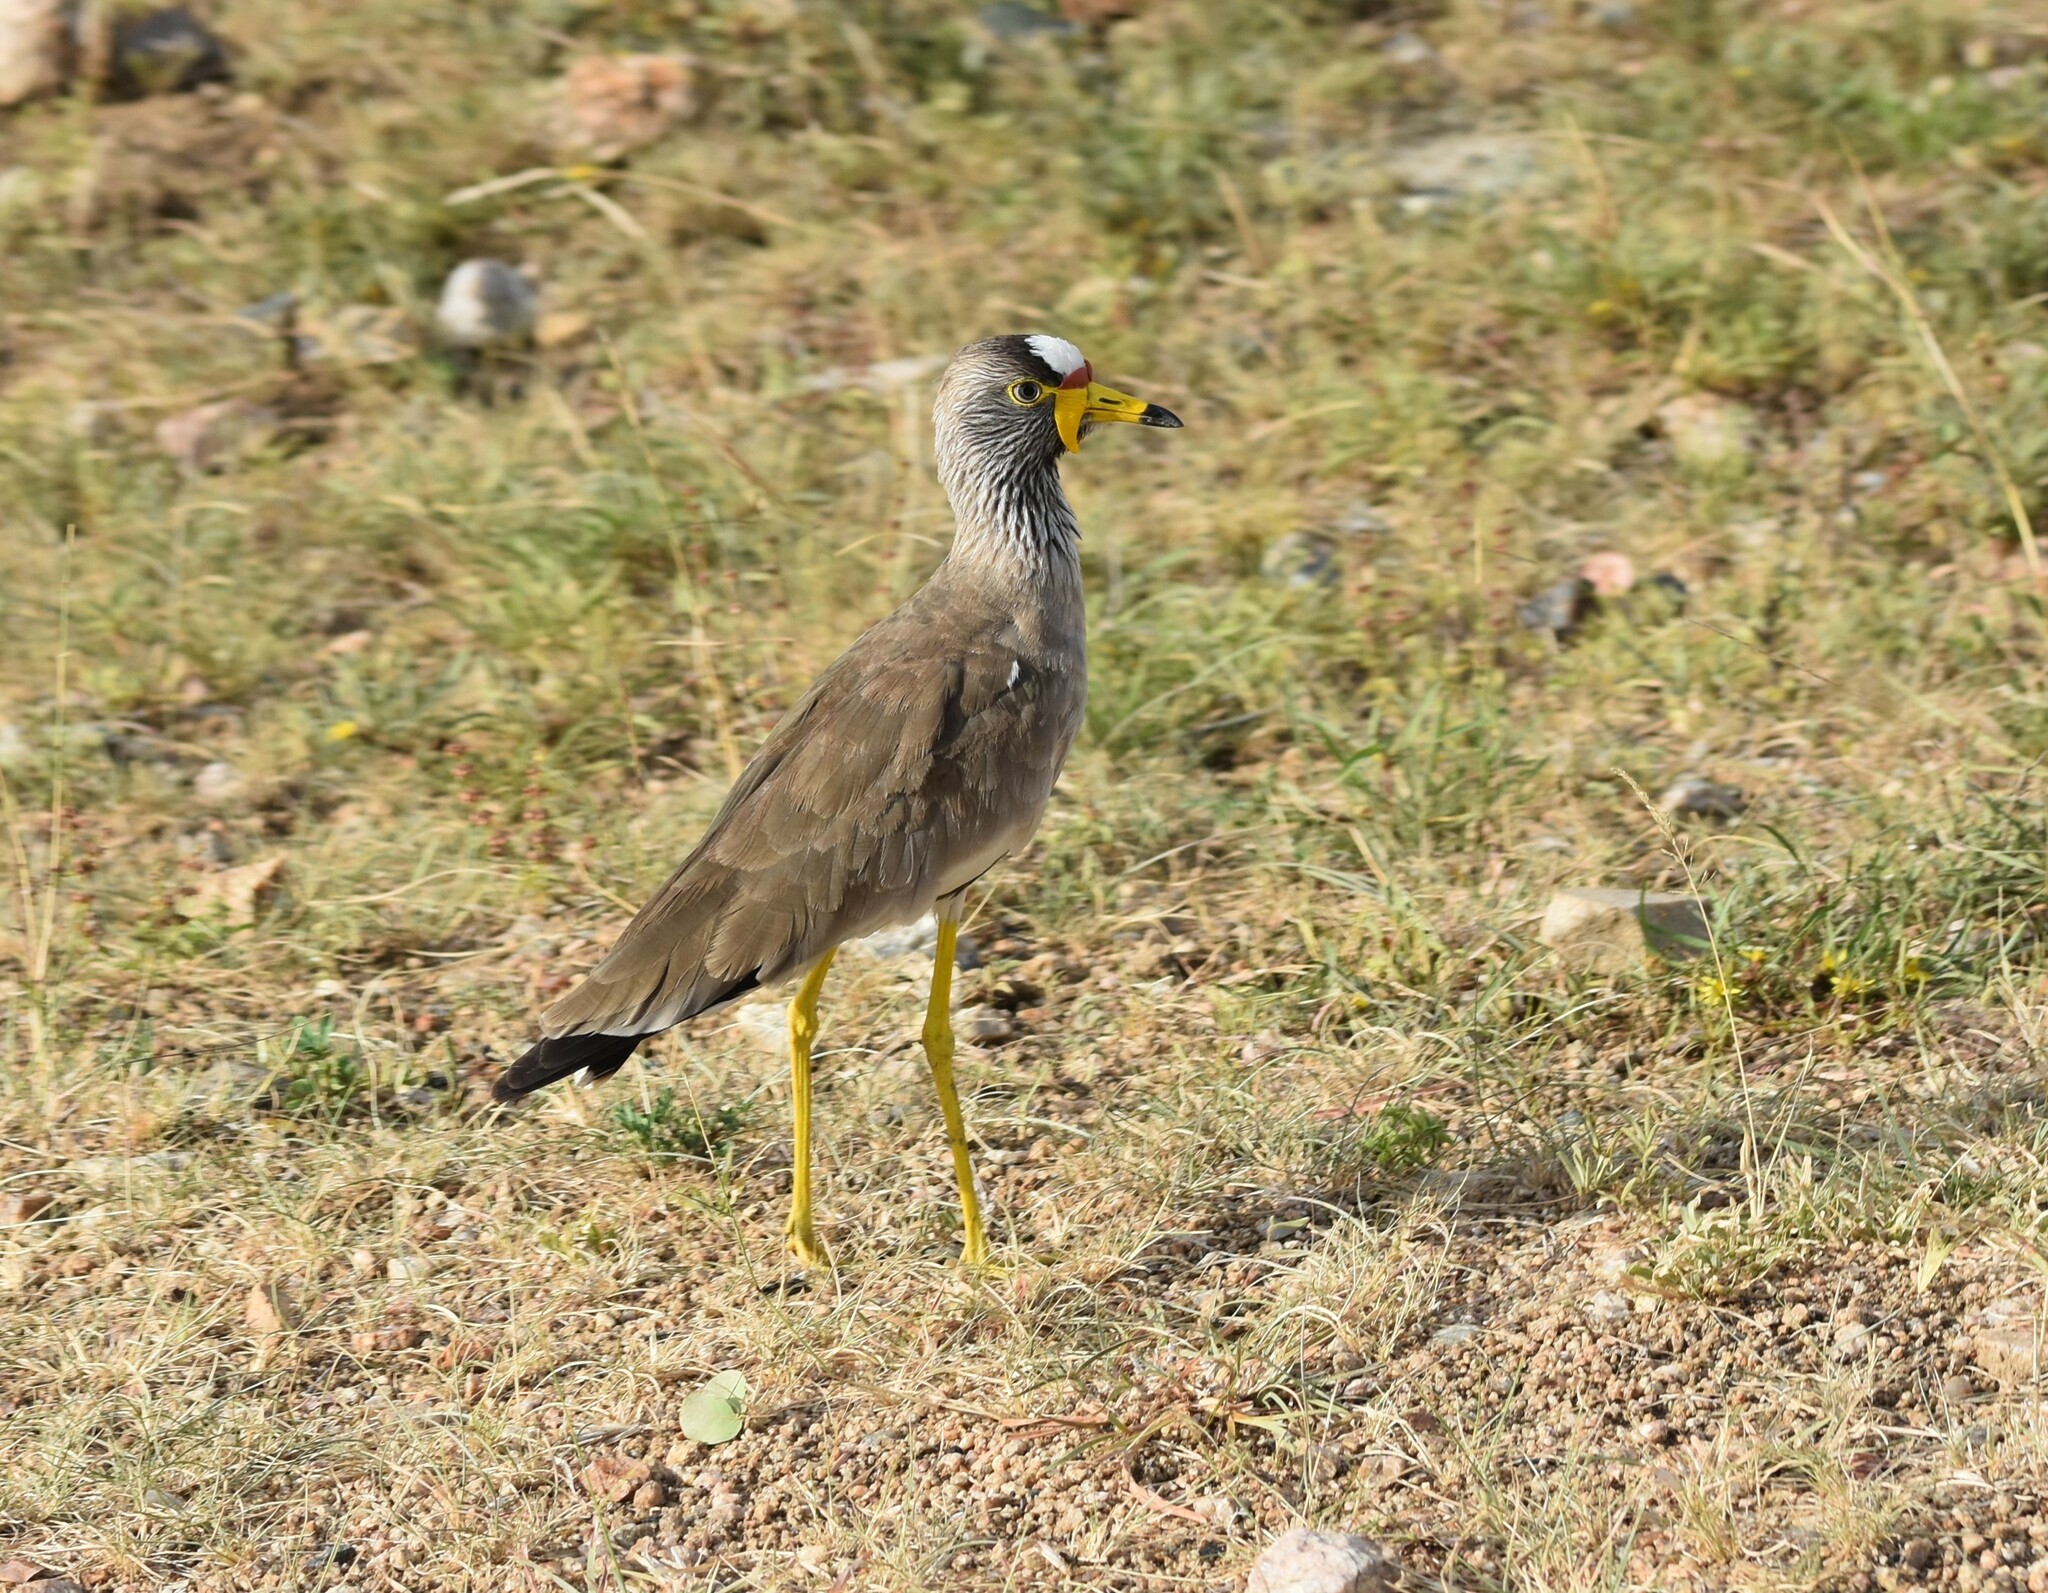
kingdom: Animalia
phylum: Chordata
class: Aves
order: Charadriiformes
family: Charadriidae
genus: Vanellus
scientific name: Vanellus senegallus
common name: African wattled lapwing
